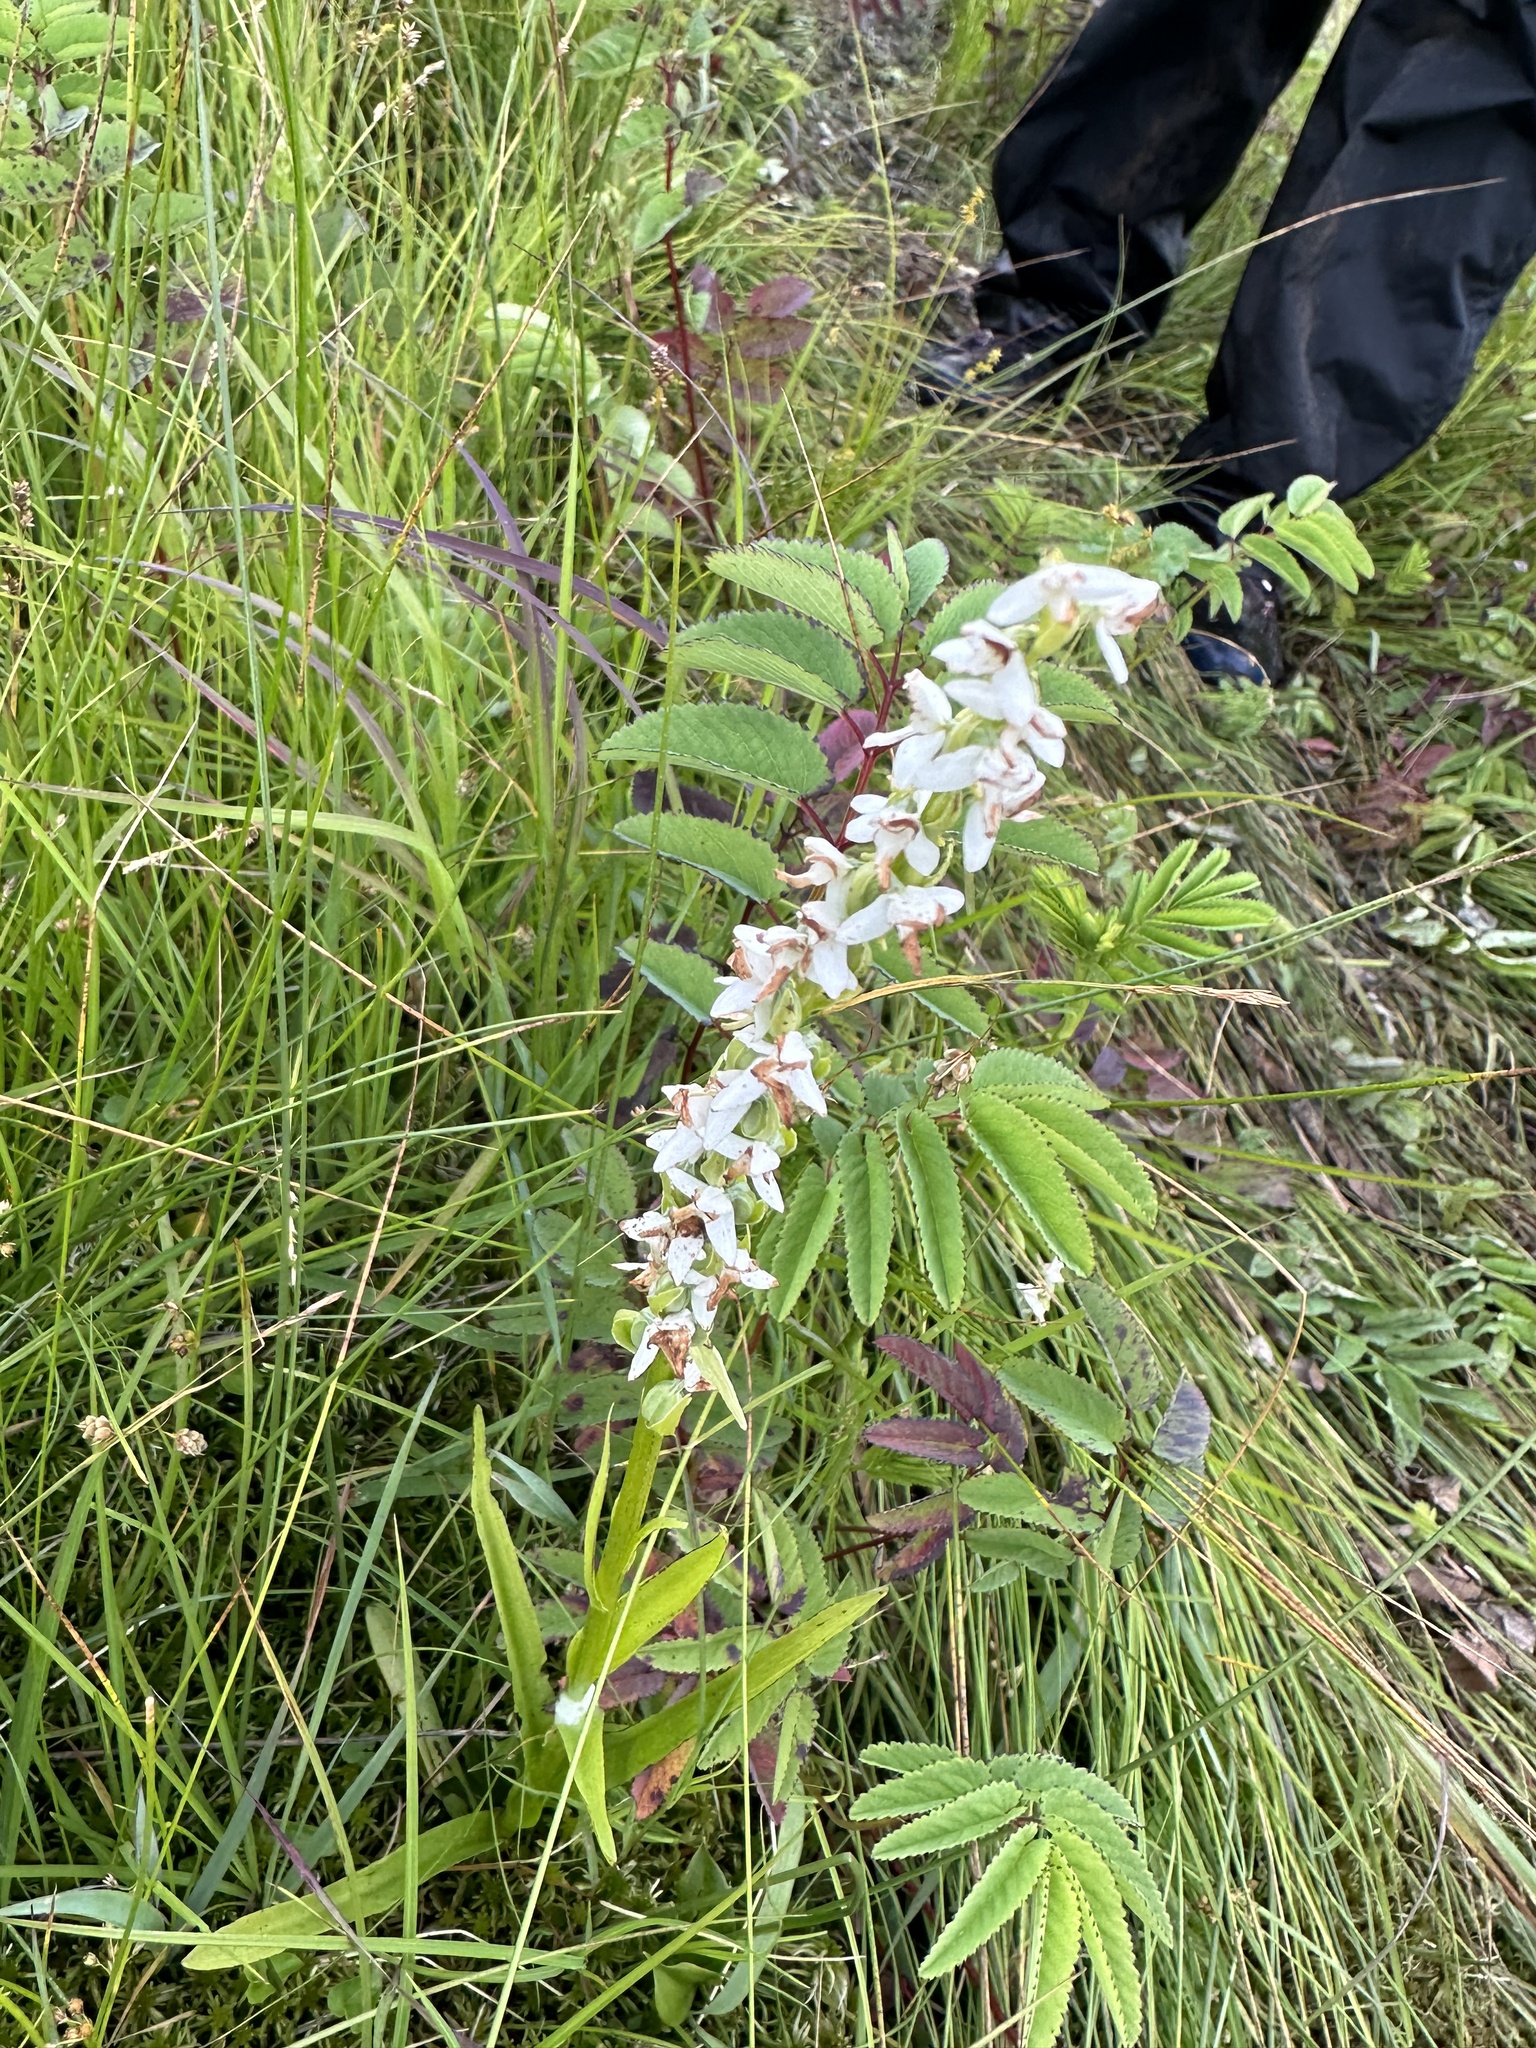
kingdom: Plantae
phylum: Tracheophyta
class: Liliopsida
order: Asparagales
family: Orchidaceae
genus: Platanthera
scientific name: Platanthera dilatata
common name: Bog candles
